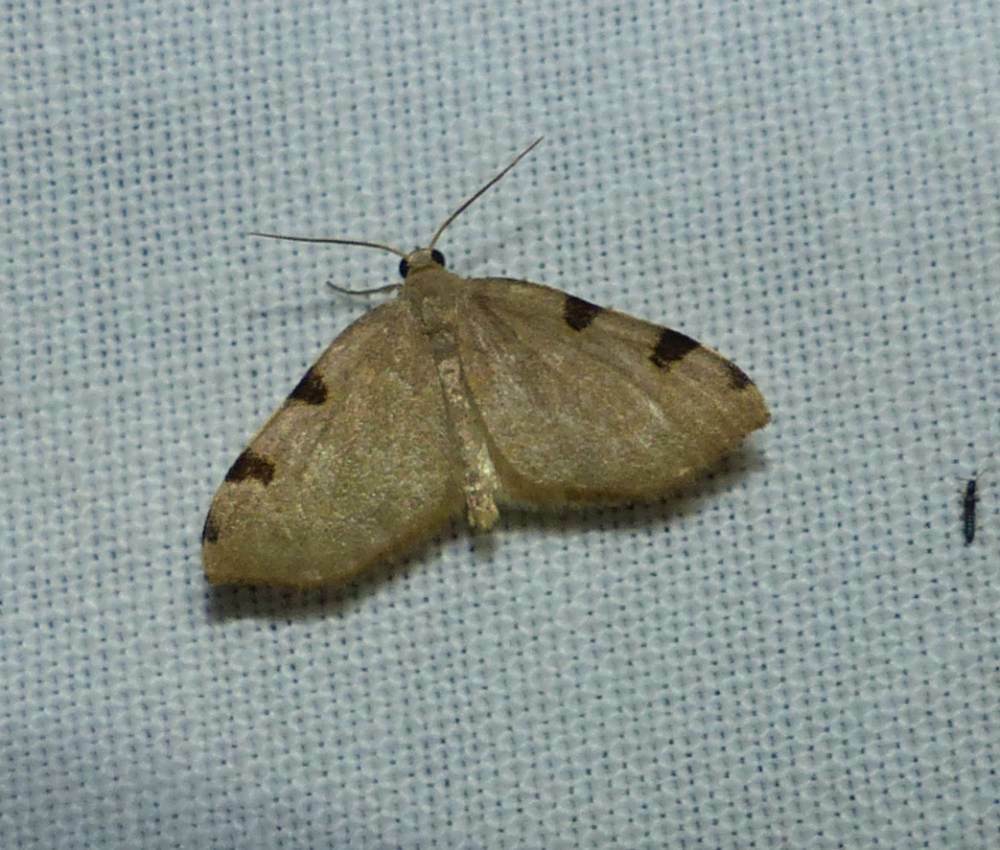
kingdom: Animalia
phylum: Arthropoda
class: Insecta
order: Lepidoptera
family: Geometridae
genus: Heterophleps
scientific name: Heterophleps triguttaria
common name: Three-spotted fillip
